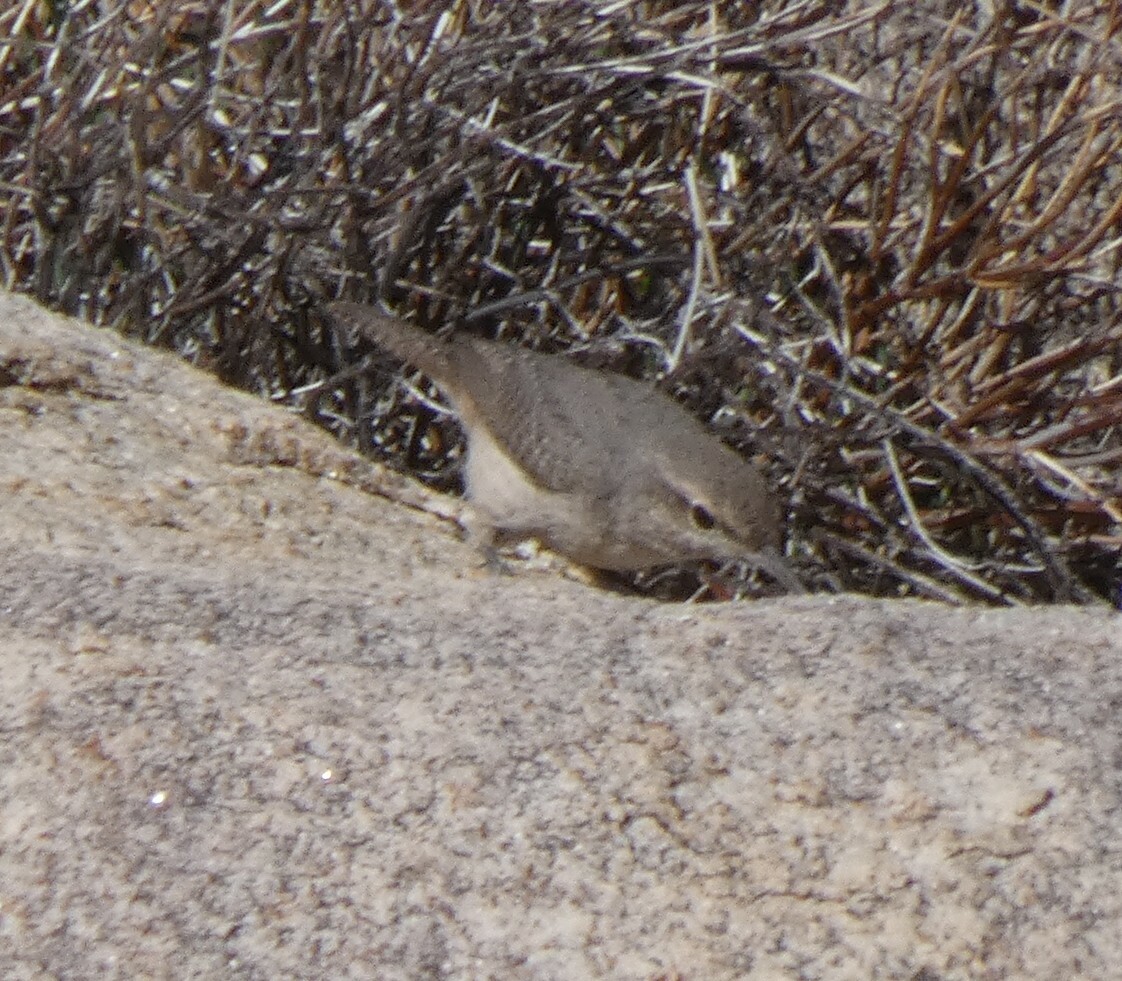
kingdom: Animalia
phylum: Chordata
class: Aves
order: Passeriformes
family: Troglodytidae
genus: Salpinctes
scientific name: Salpinctes obsoletus
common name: Rock wren
